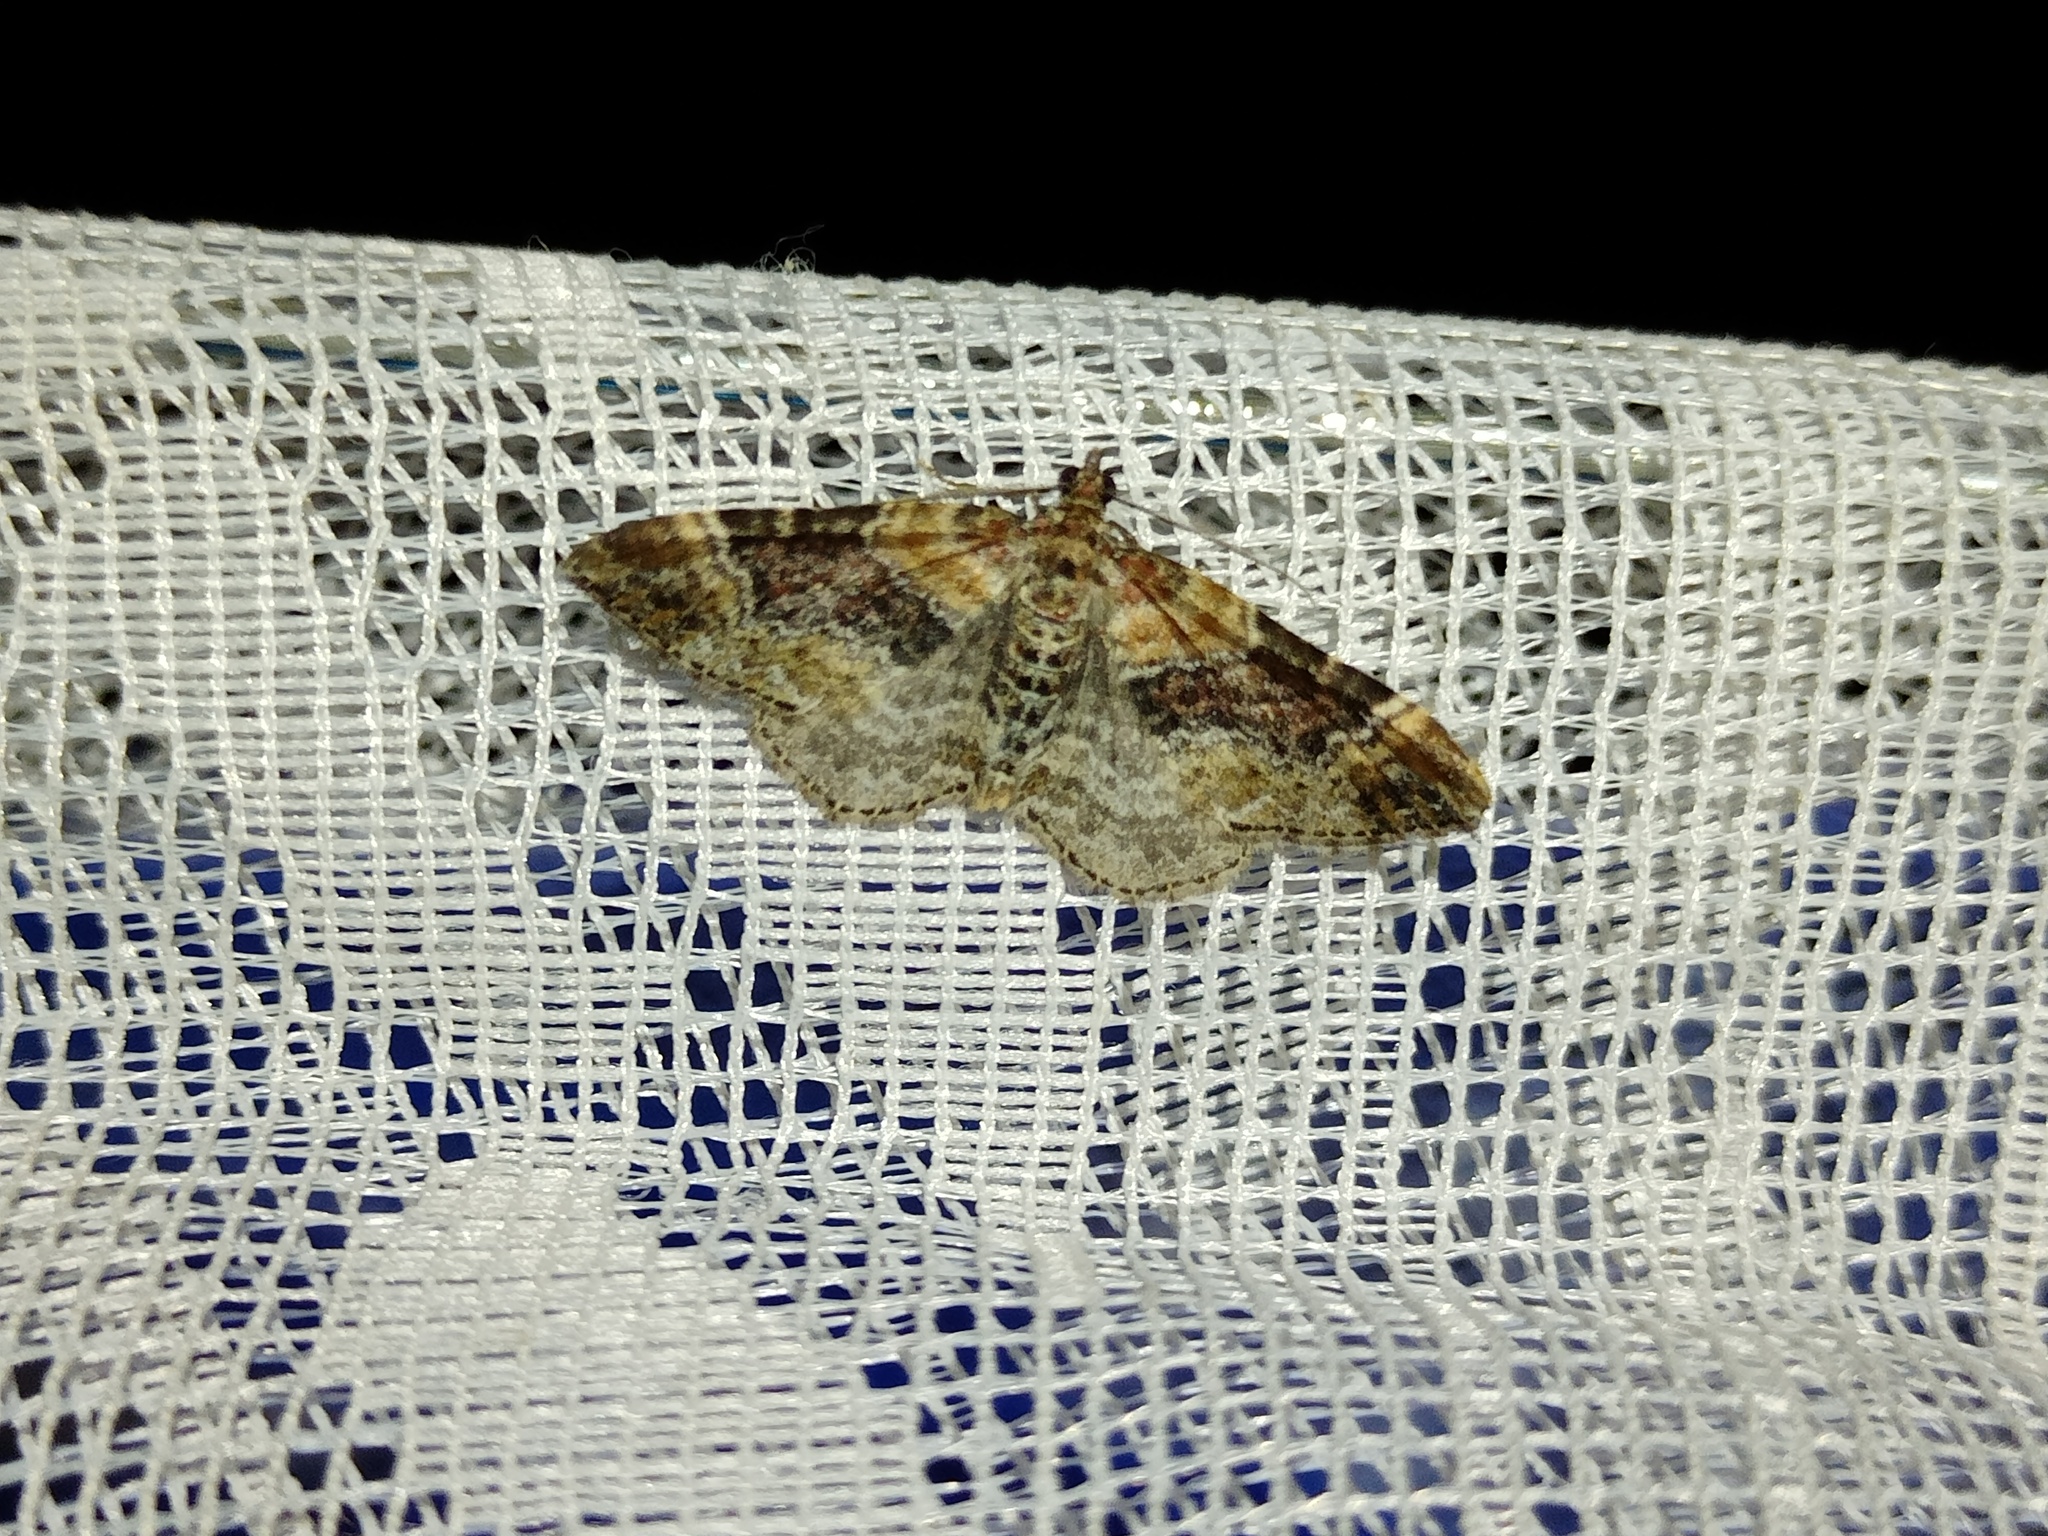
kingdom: Animalia
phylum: Arthropoda
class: Insecta
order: Lepidoptera
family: Geometridae
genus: Xanthorhoe
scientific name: Xanthorhoe spadicearia
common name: Red twin-spot carpet
